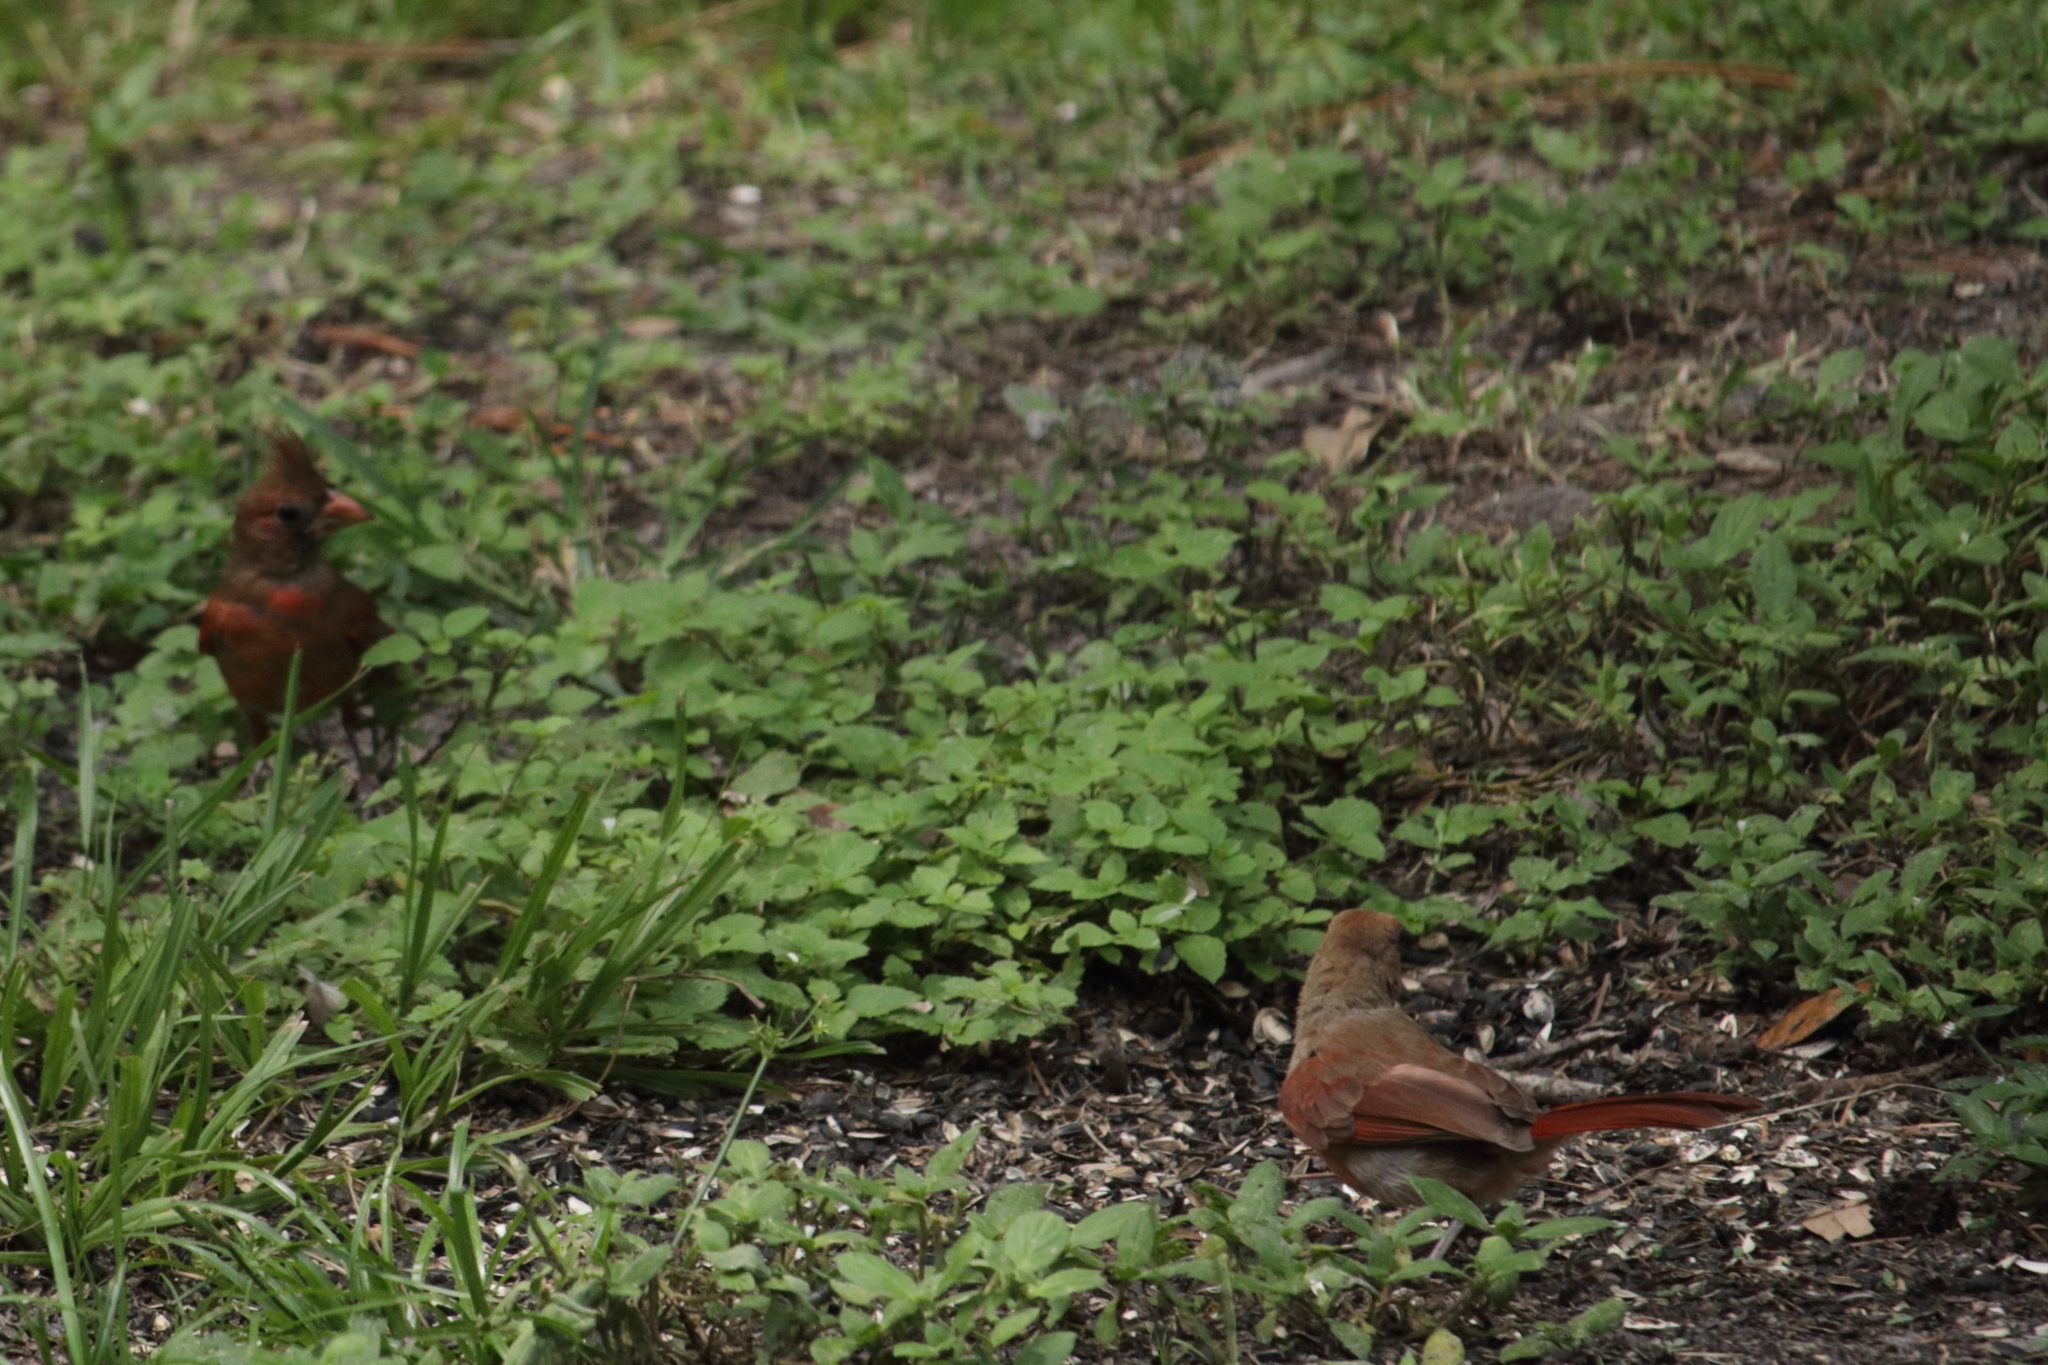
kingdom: Animalia
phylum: Chordata
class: Aves
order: Passeriformes
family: Cardinalidae
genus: Cardinalis
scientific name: Cardinalis cardinalis
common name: Northern cardinal
